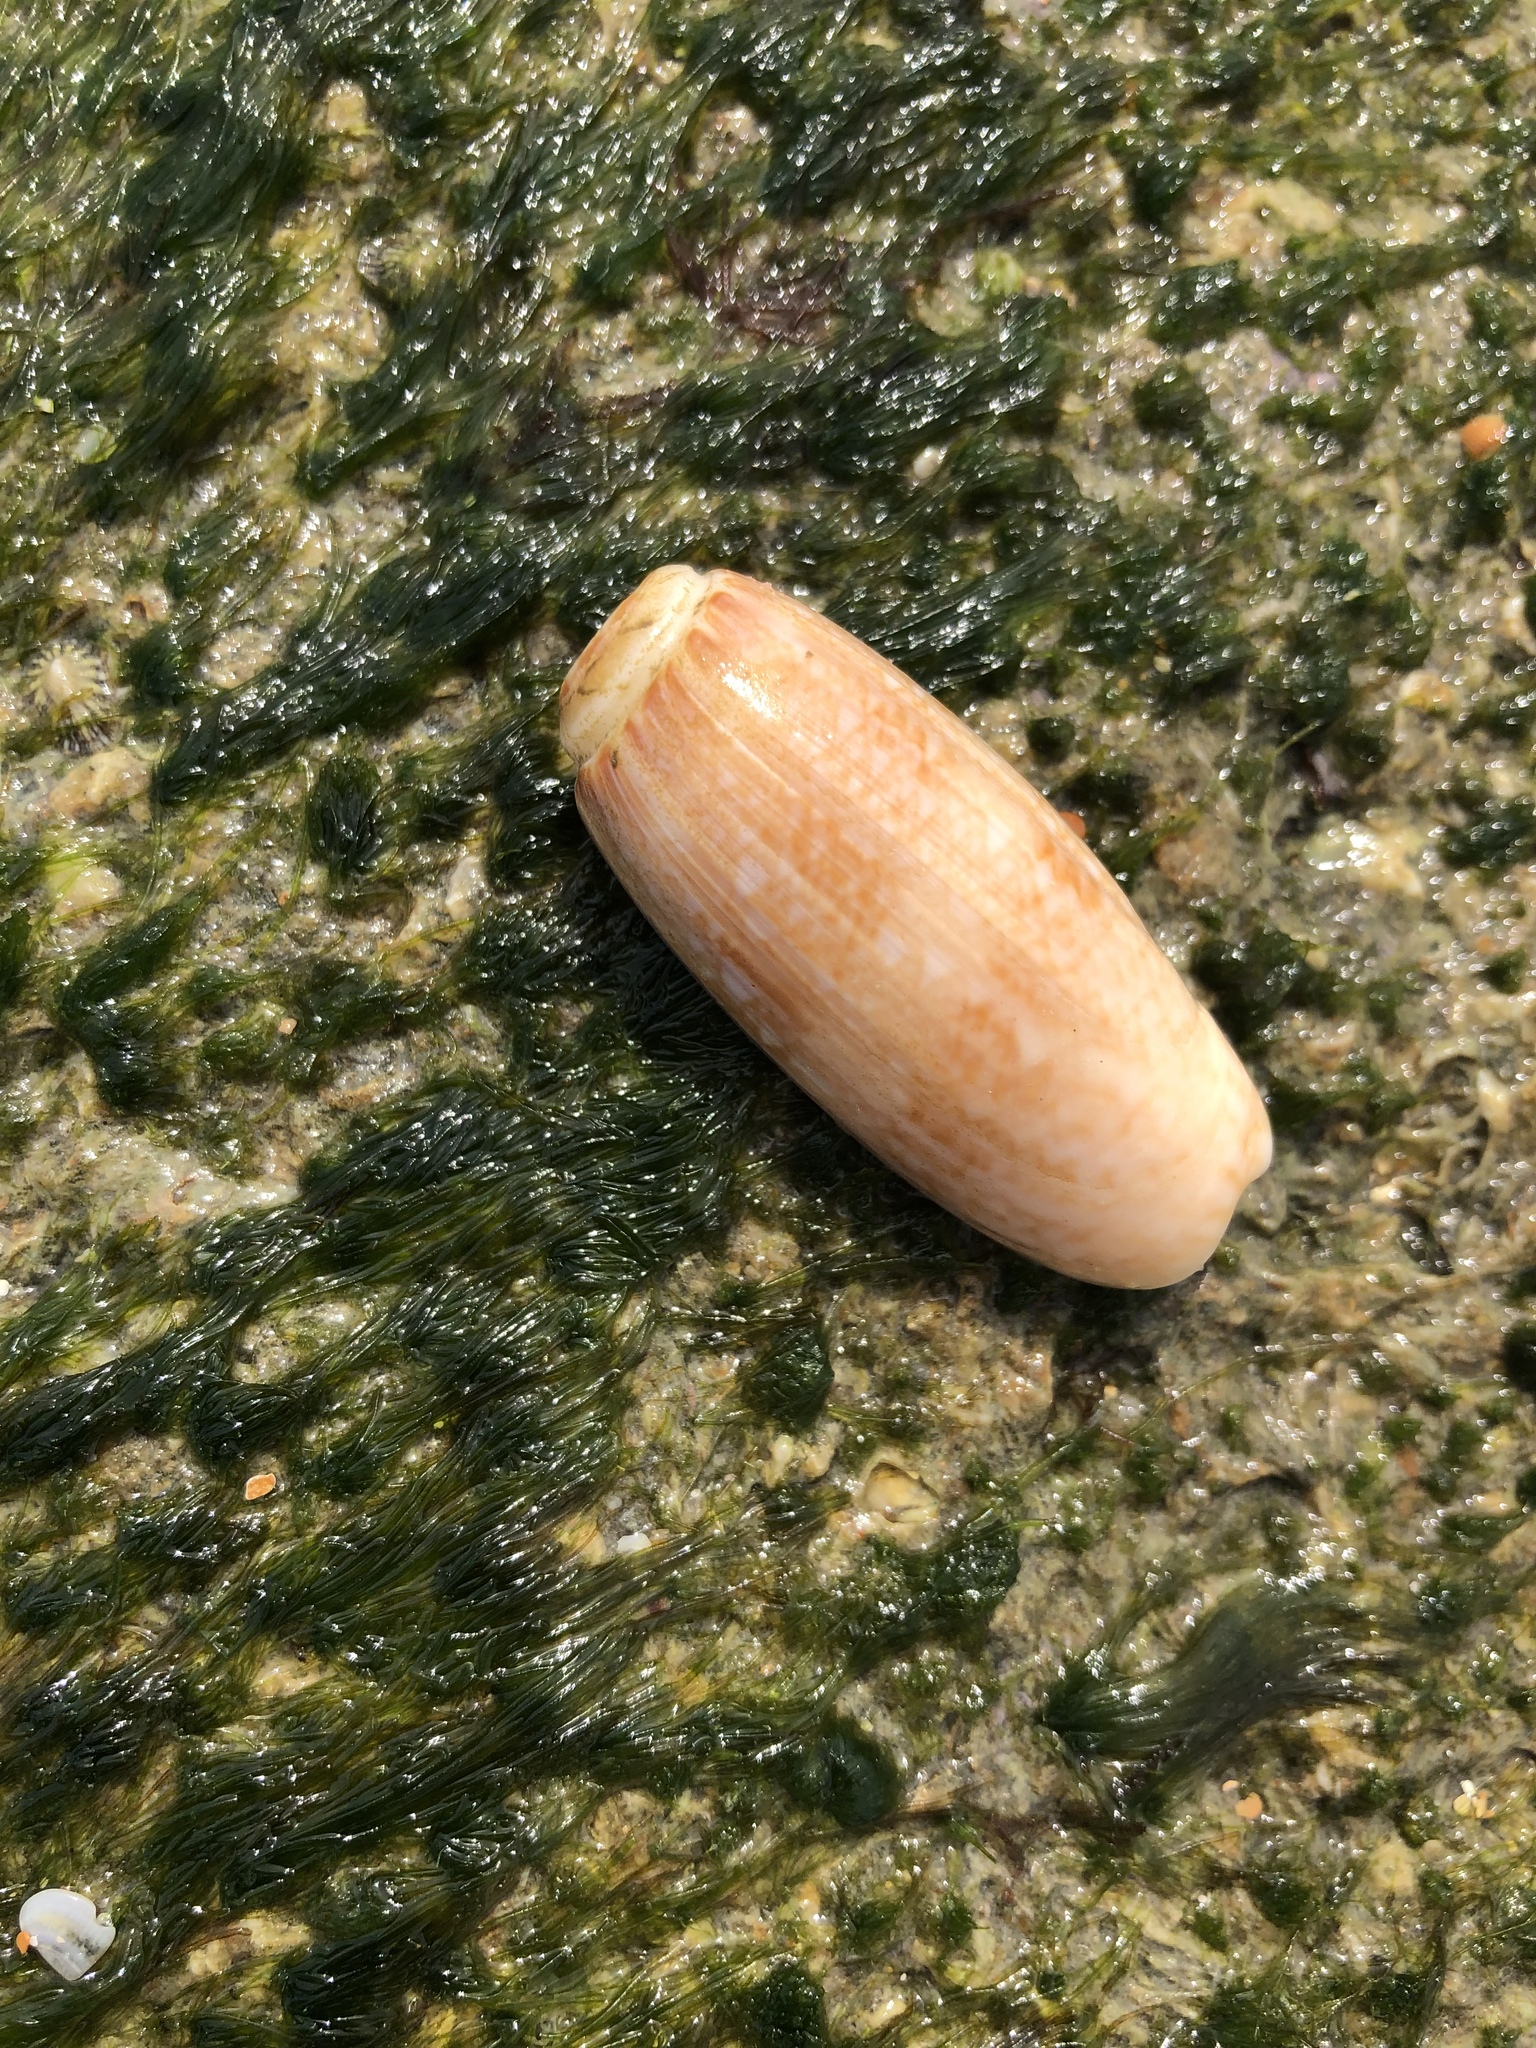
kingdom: Animalia
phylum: Mollusca
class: Gastropoda
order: Neogastropoda
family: Olividae
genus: Oliva
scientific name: Oliva sayana
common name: Lettered olive
